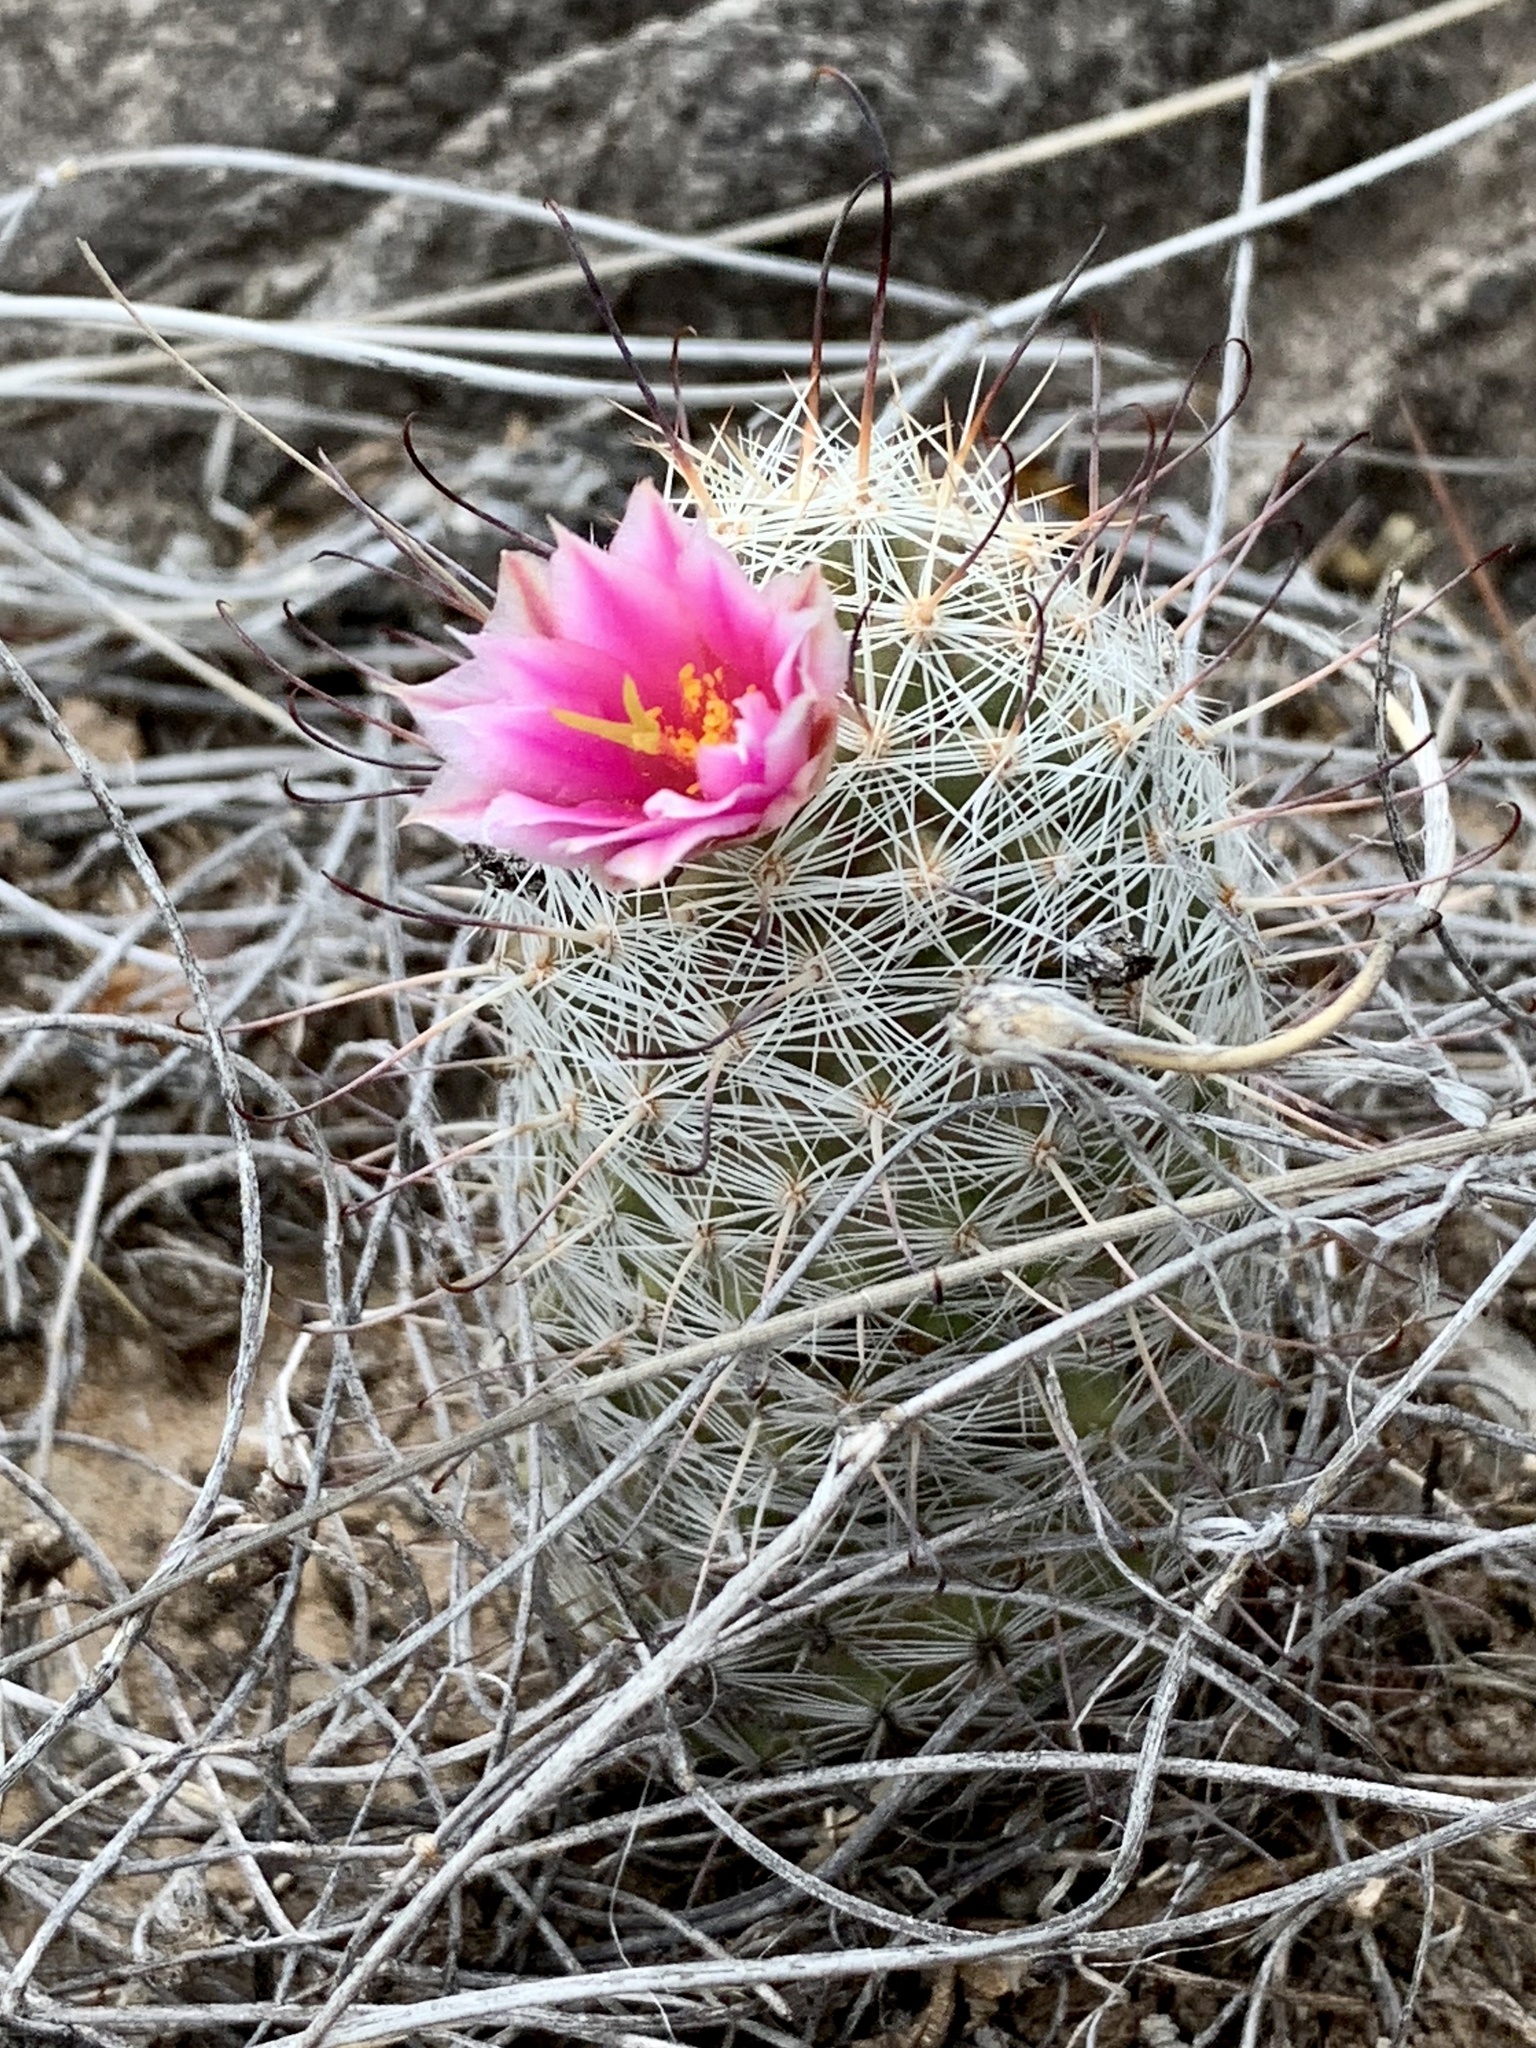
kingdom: Plantae
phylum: Tracheophyta
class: Magnoliopsida
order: Caryophyllales
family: Cactaceae
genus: Cochemiea
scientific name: Cochemiea grahamii
